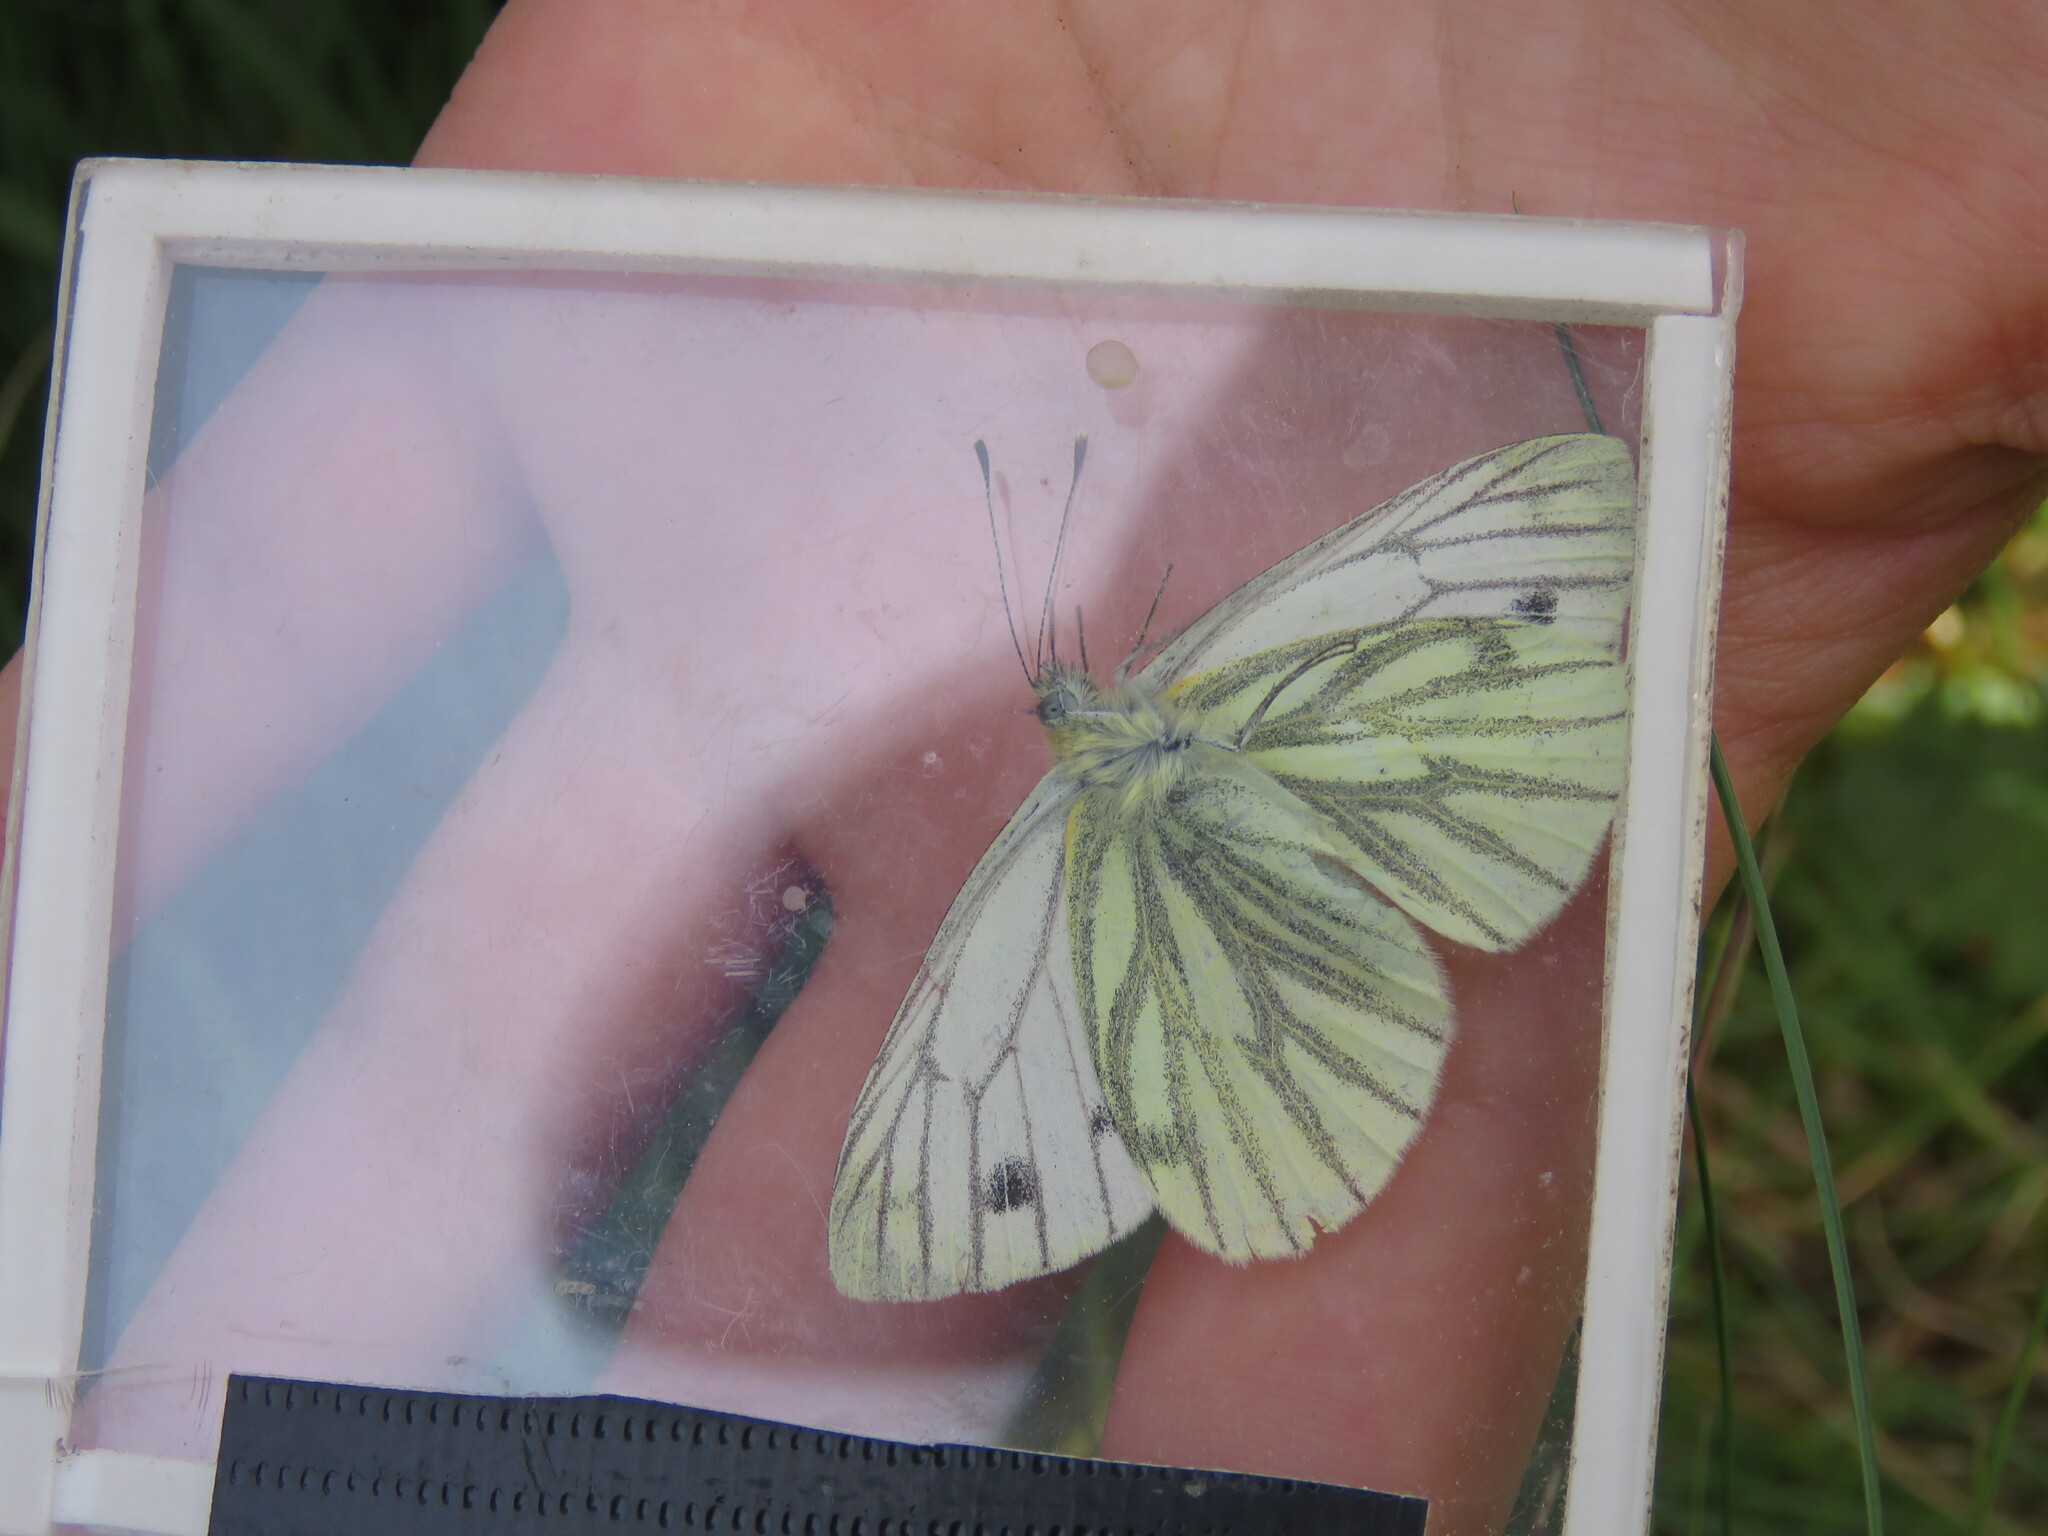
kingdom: Animalia
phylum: Arthropoda
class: Insecta
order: Lepidoptera
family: Pieridae
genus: Pieris
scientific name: Pieris napi
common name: Green-veined white
